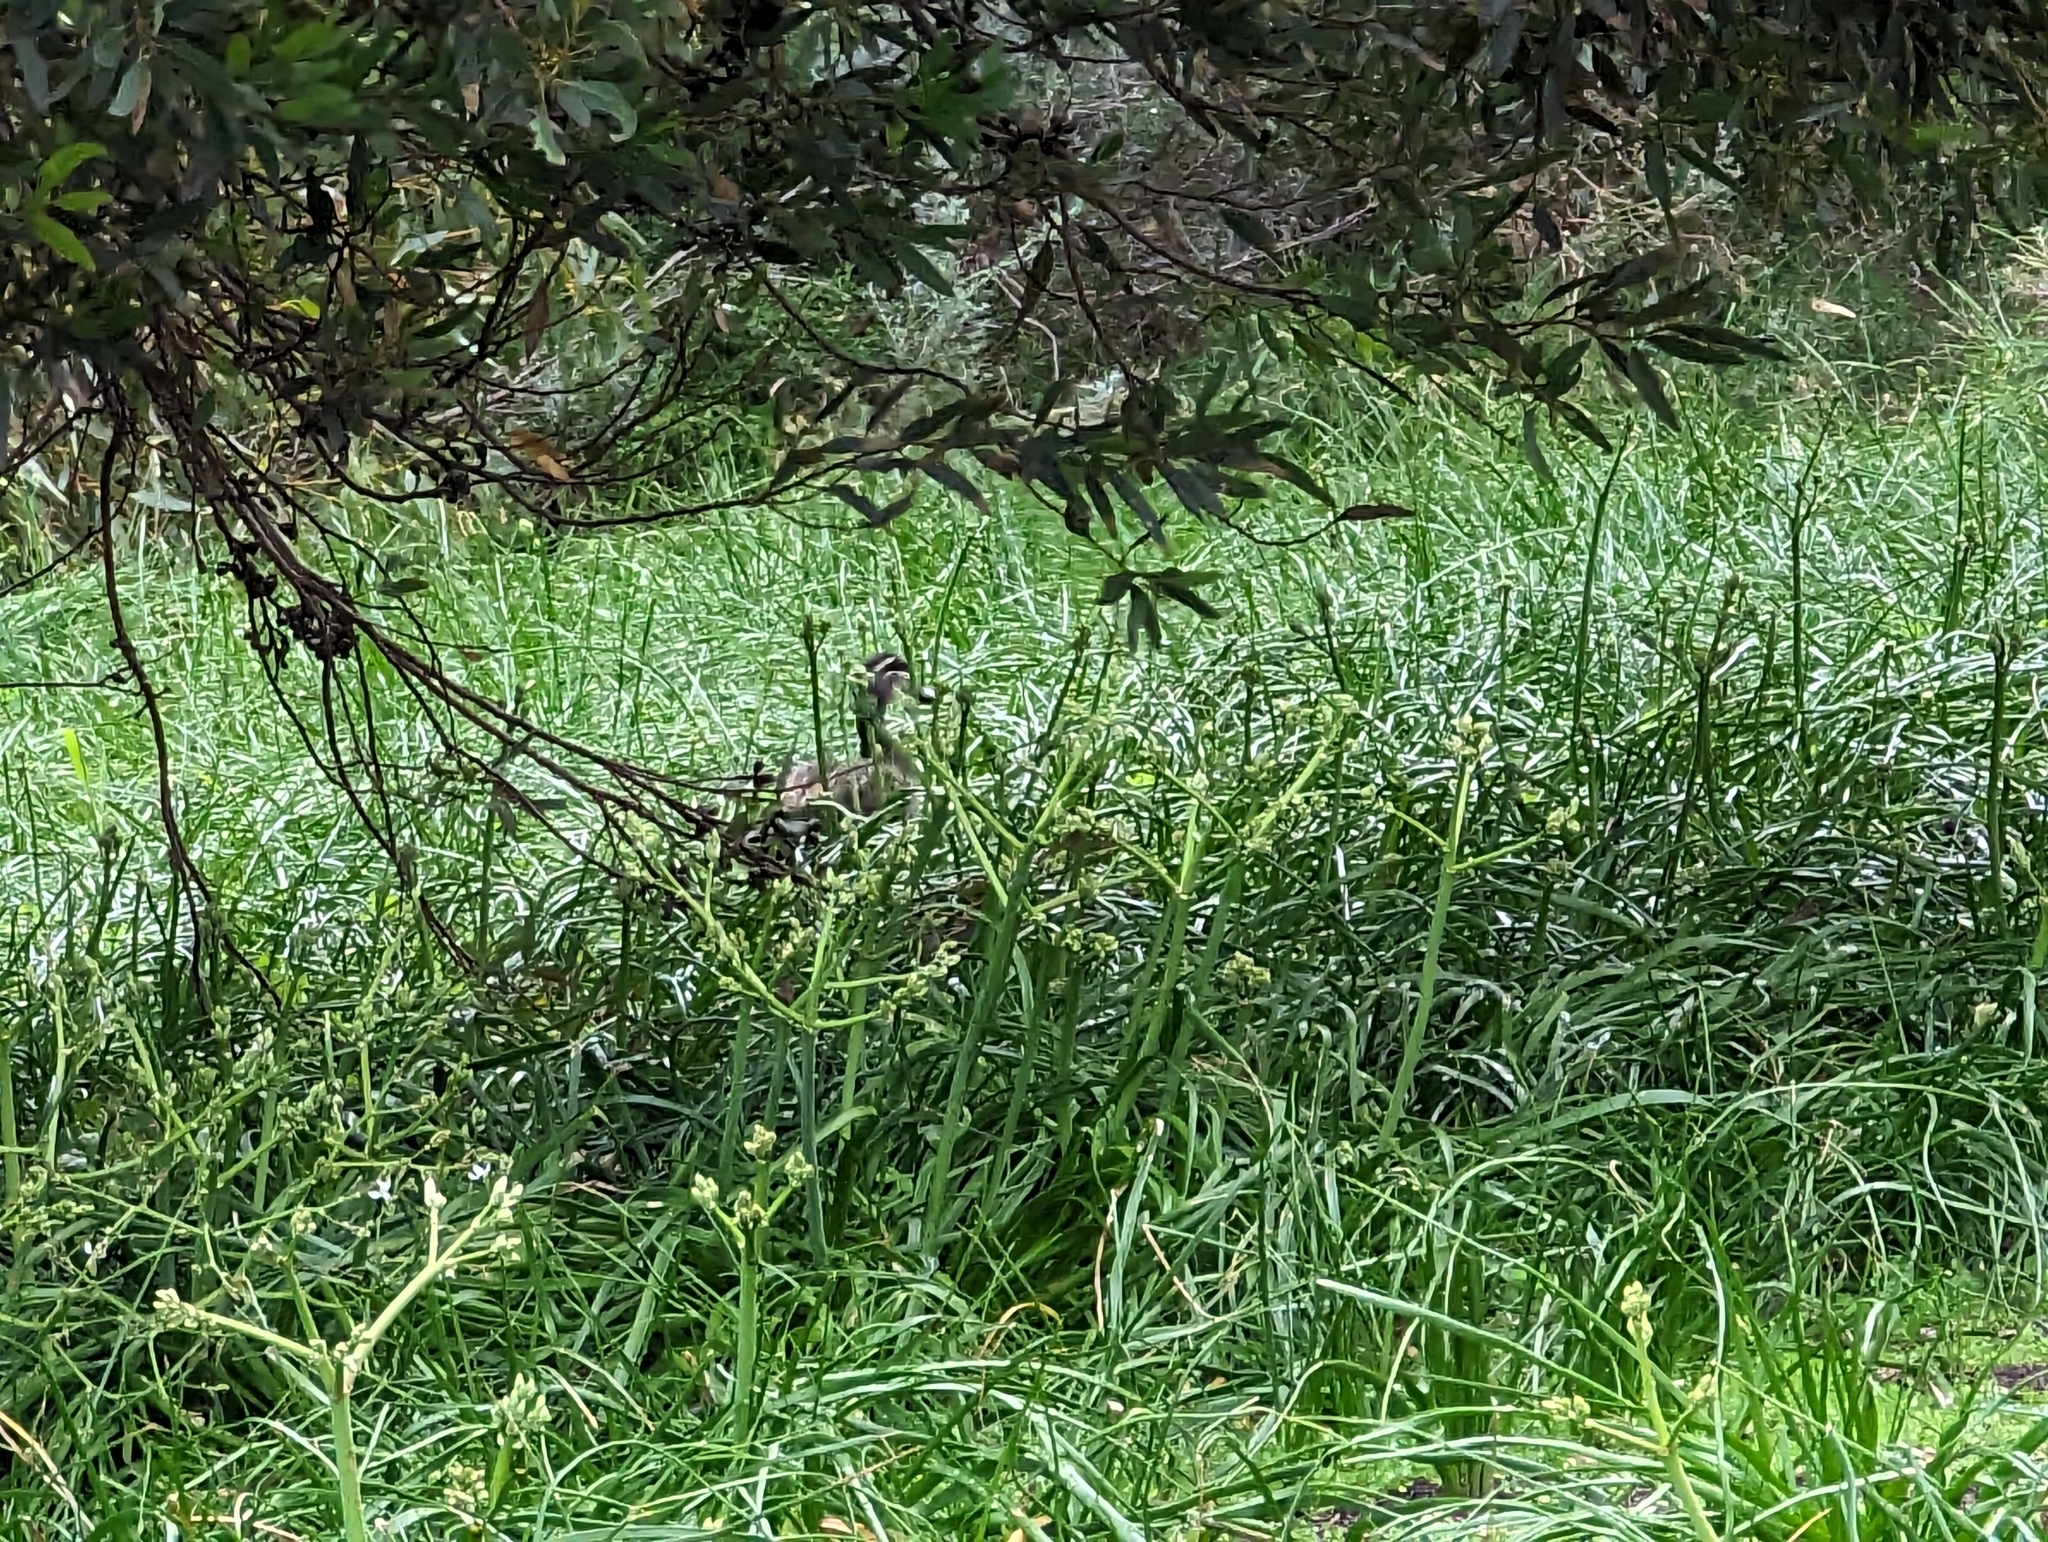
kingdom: Animalia
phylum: Chordata
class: Aves
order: Anseriformes
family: Anatidae
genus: Anas
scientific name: Anas superciliosa
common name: Pacific black duck
